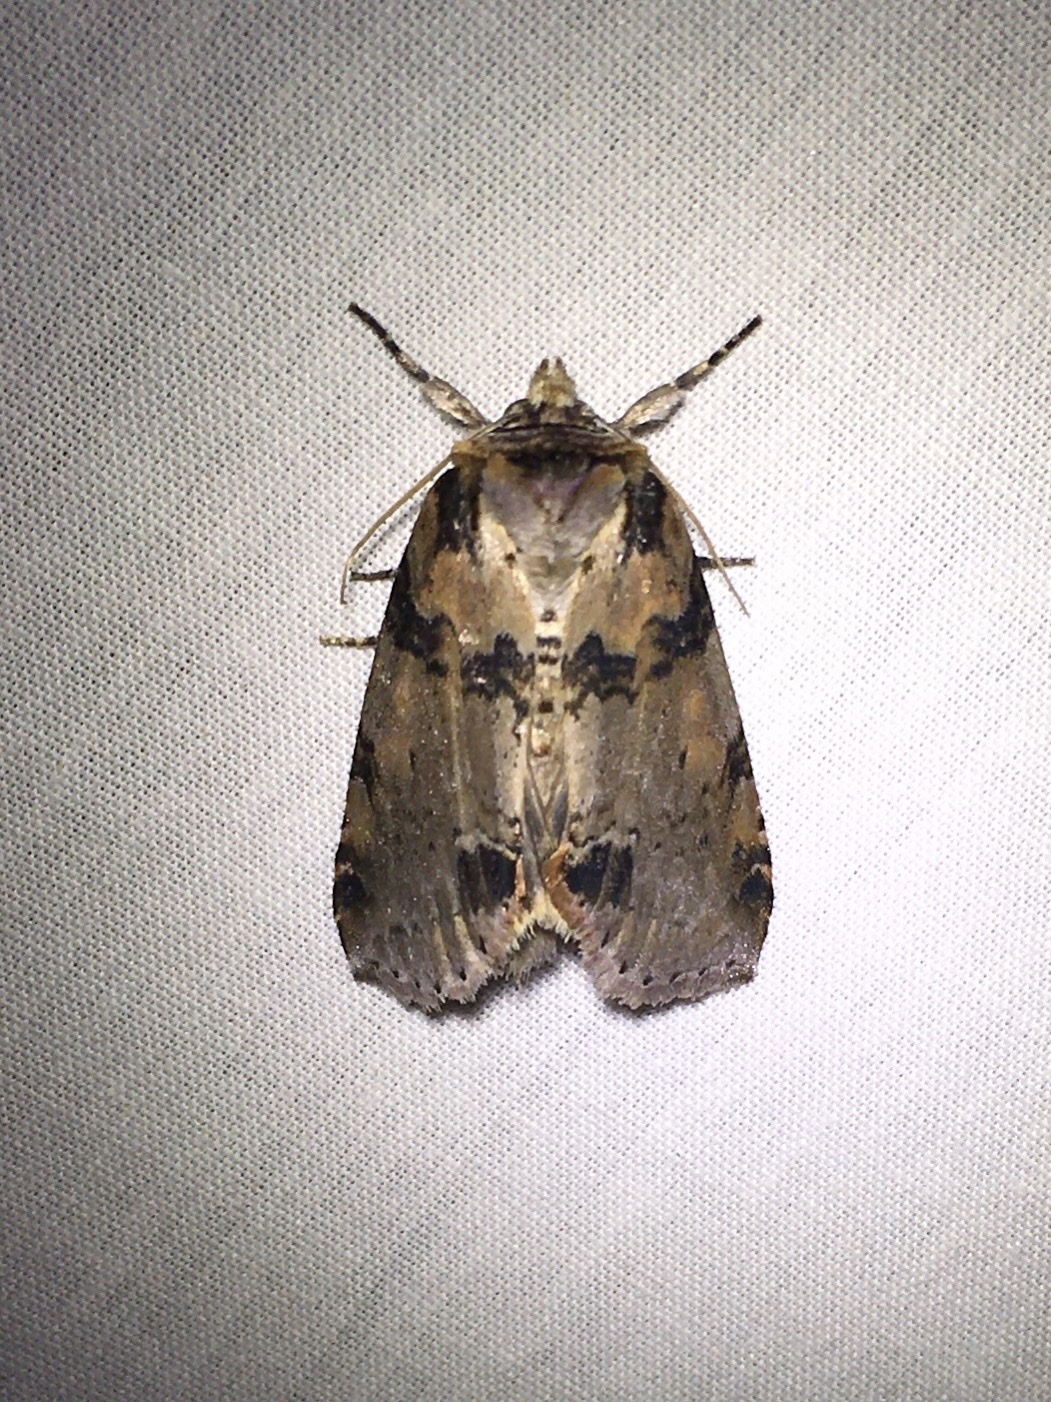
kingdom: Animalia
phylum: Arthropoda
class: Insecta
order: Lepidoptera
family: Drepanidae
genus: Pseudothyatira
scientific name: Pseudothyatira cymatophoroides
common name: Tufted thyatirid moth
